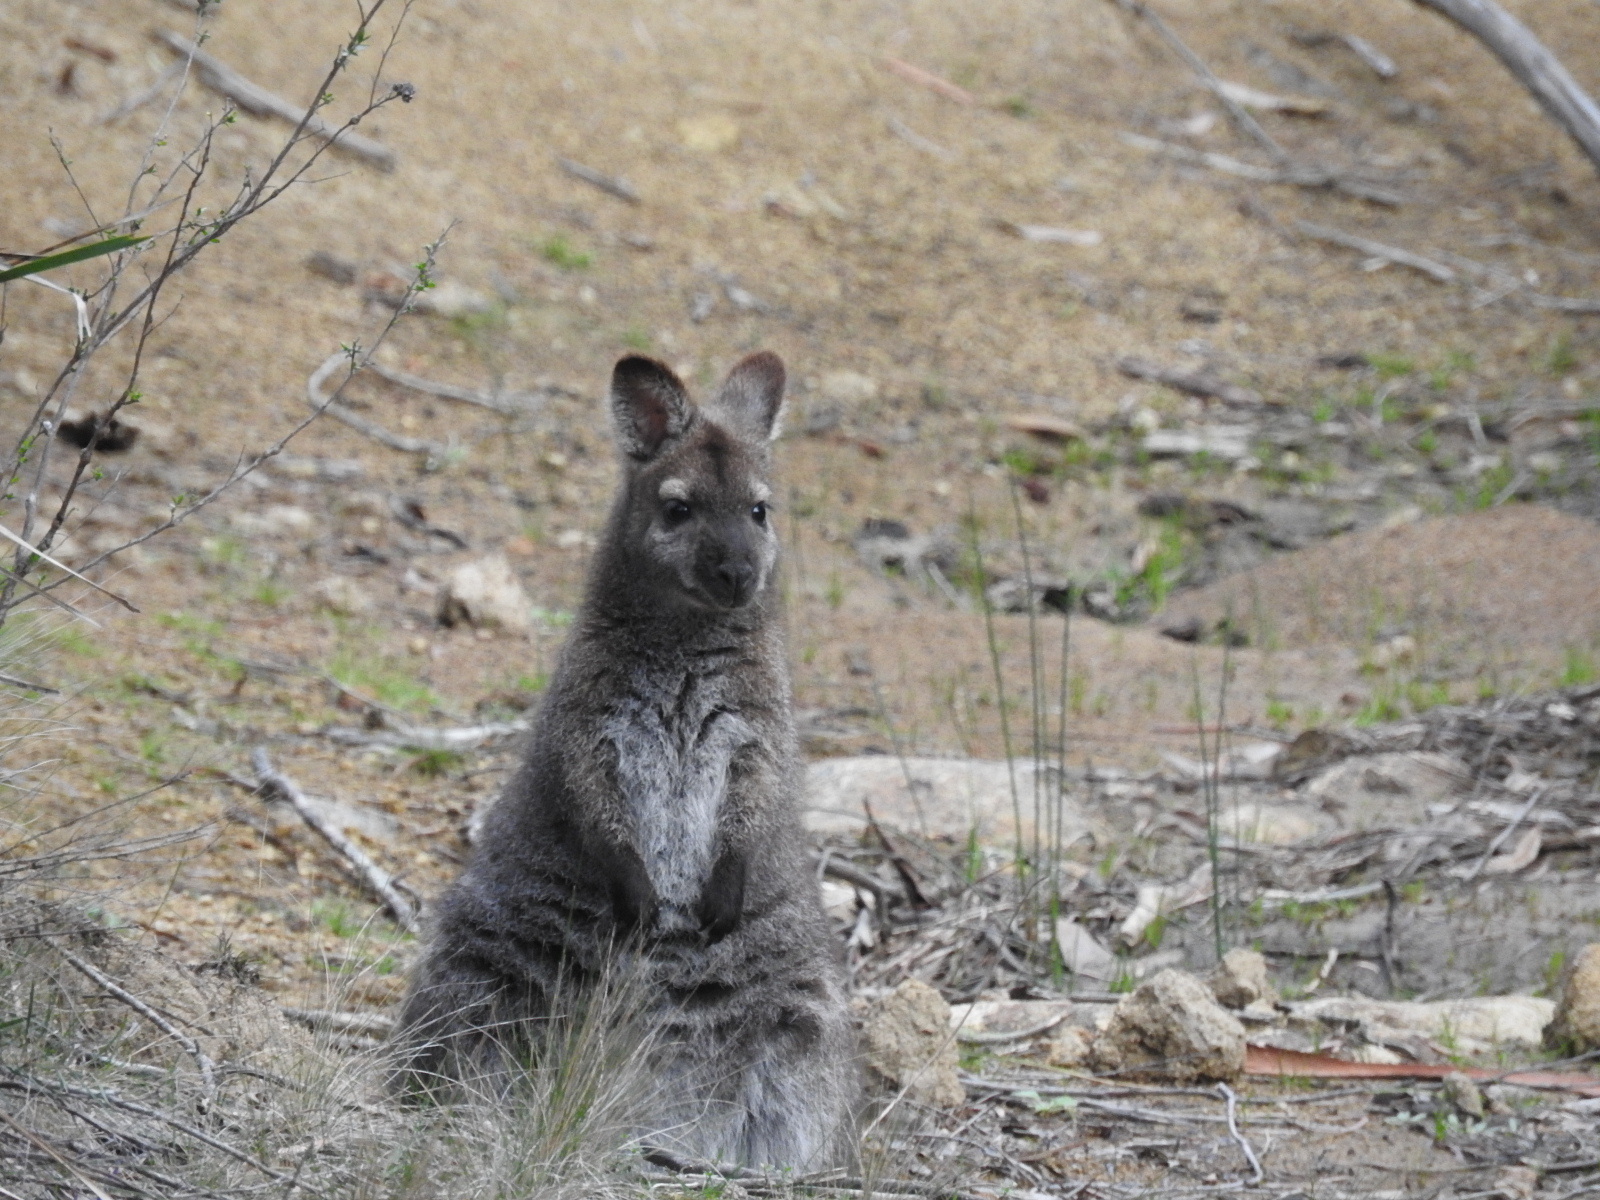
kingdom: Animalia
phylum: Chordata
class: Mammalia
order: Diprotodontia
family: Macropodidae
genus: Notamacropus
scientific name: Notamacropus rufogriseus
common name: Red-necked wallaby
